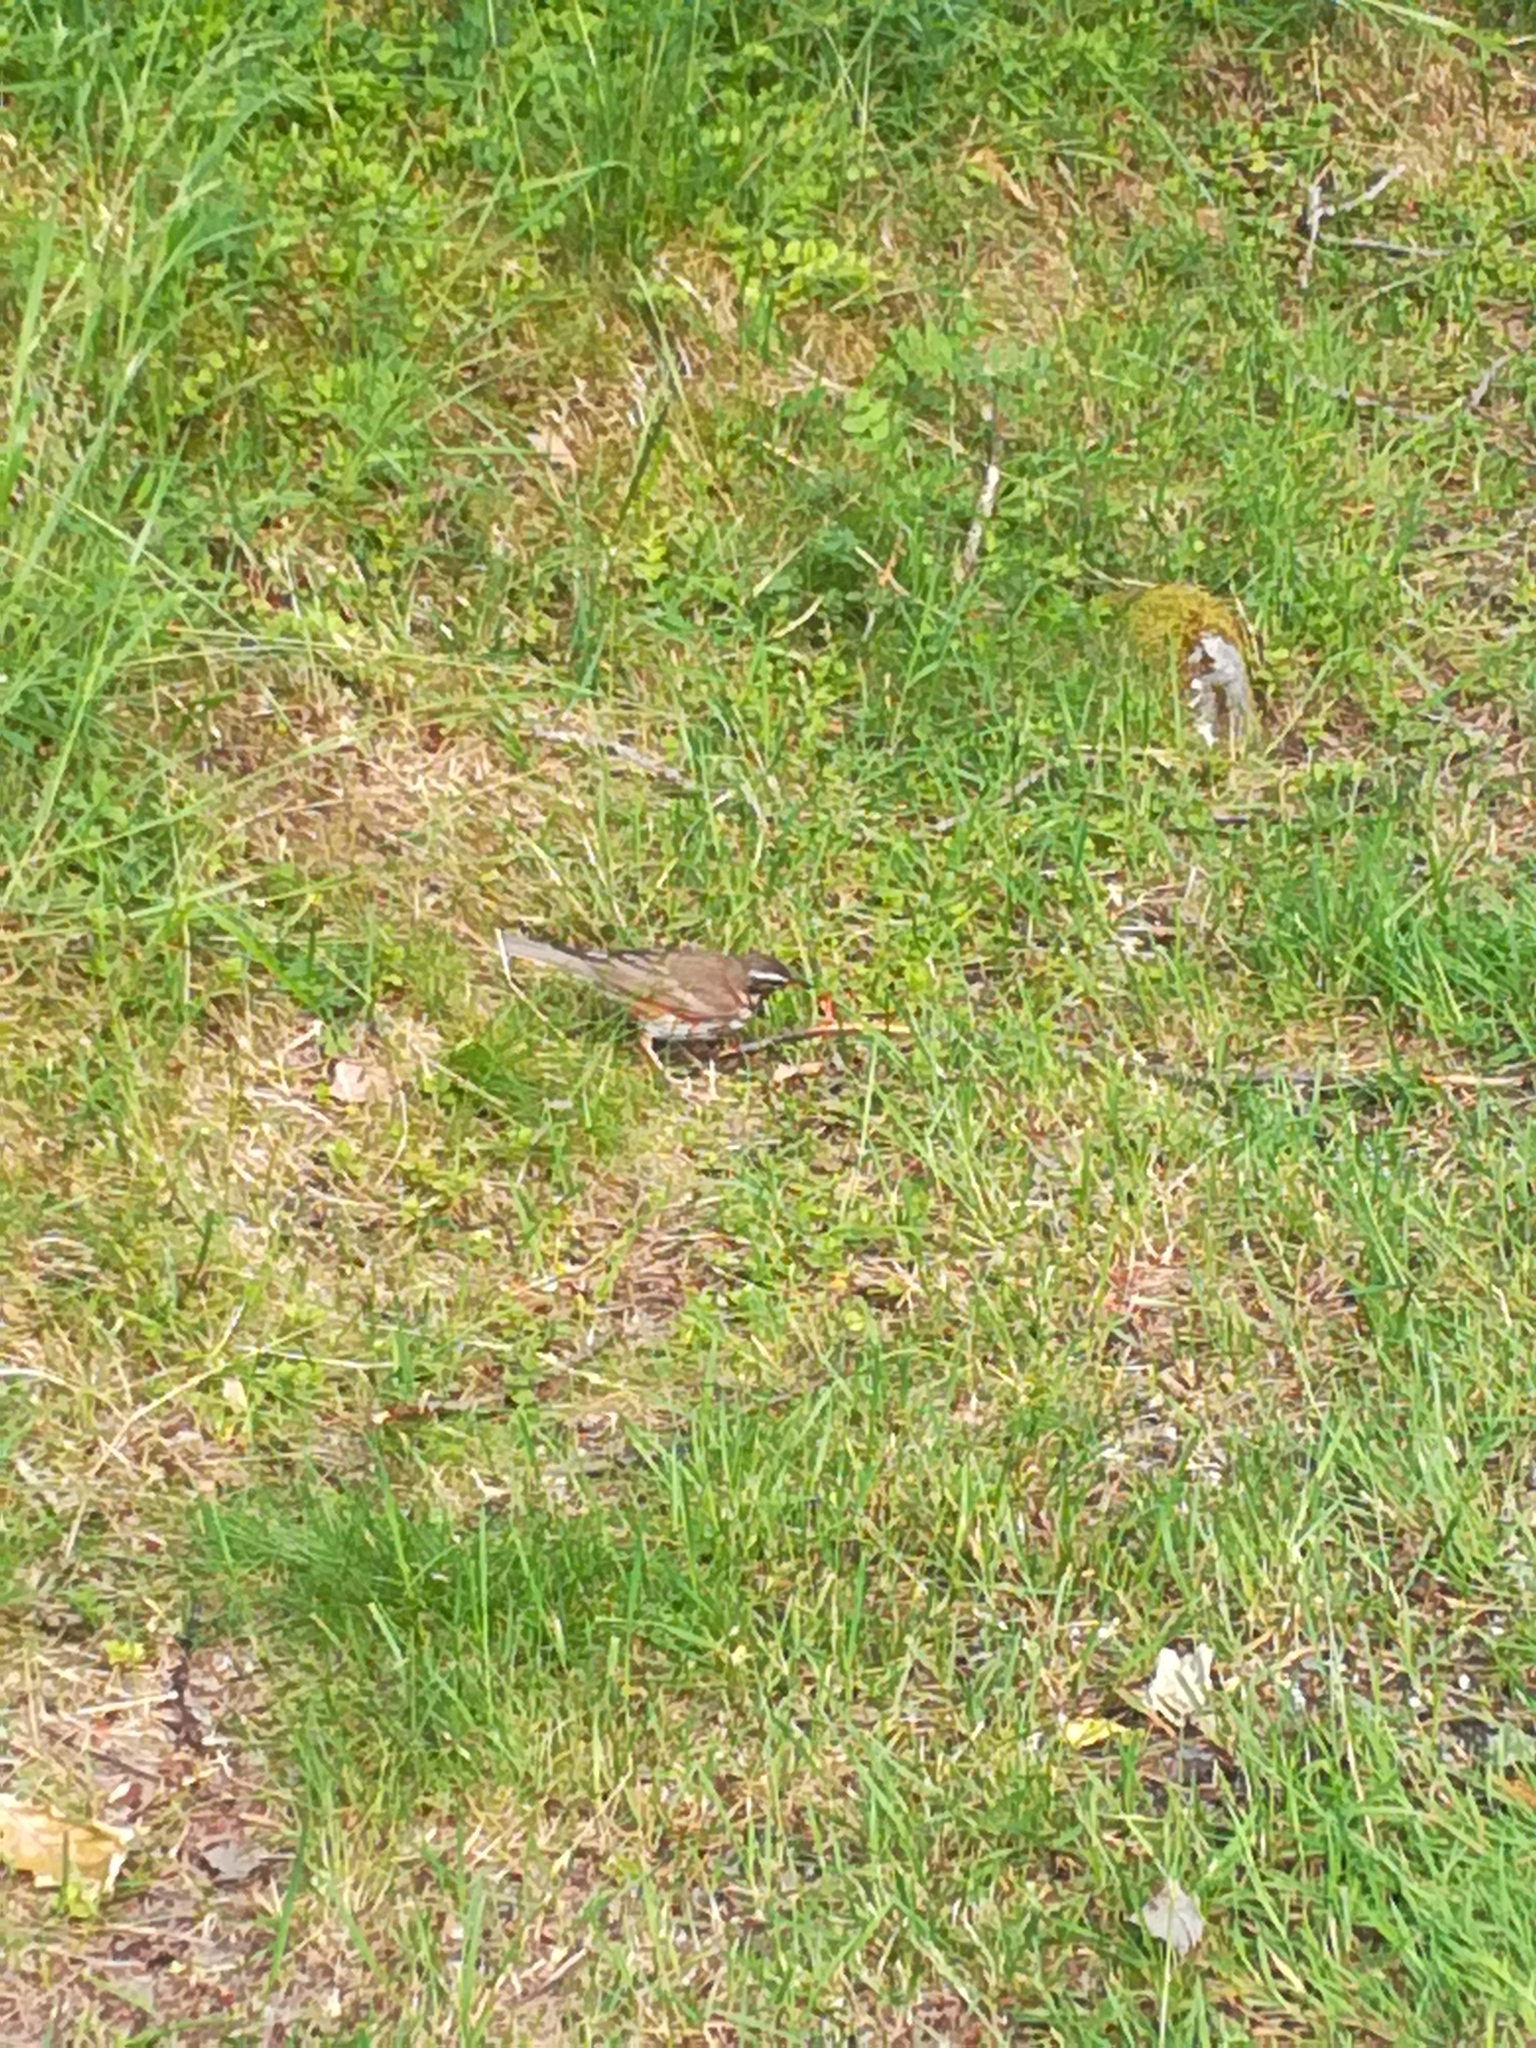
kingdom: Animalia
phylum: Chordata
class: Aves
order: Passeriformes
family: Turdidae
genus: Turdus
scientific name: Turdus iliacus
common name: Redwing
